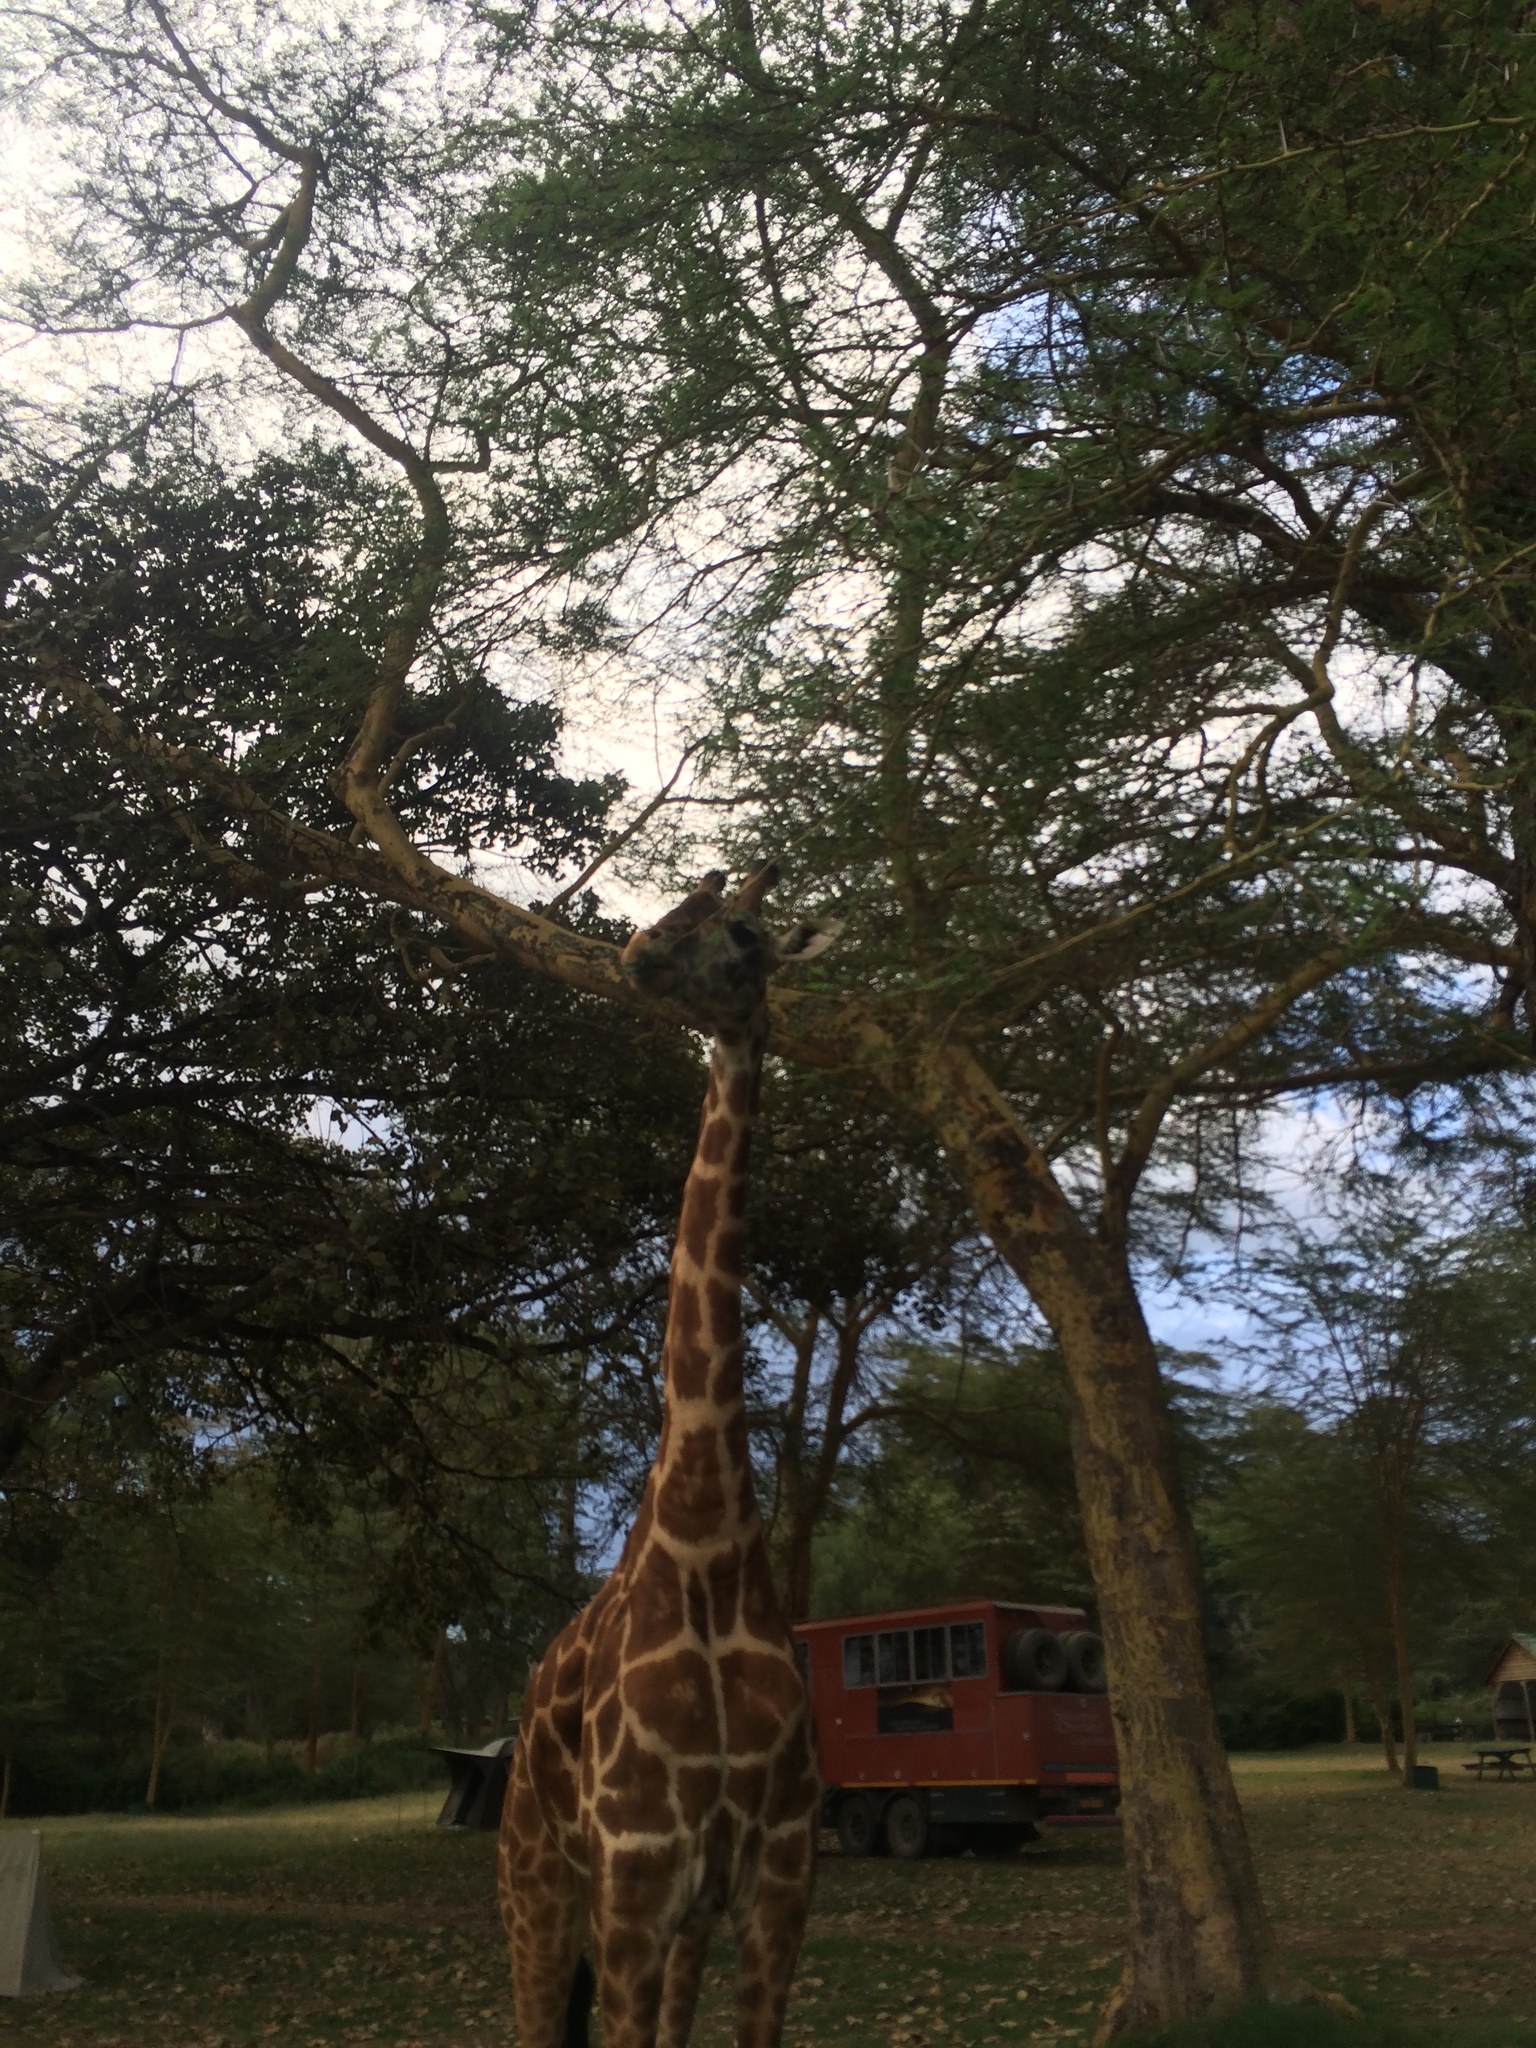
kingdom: Animalia
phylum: Chordata
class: Mammalia
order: Artiodactyla
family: Giraffidae
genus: Giraffa
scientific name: Giraffa tippelskirchi
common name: Masai giraffe
